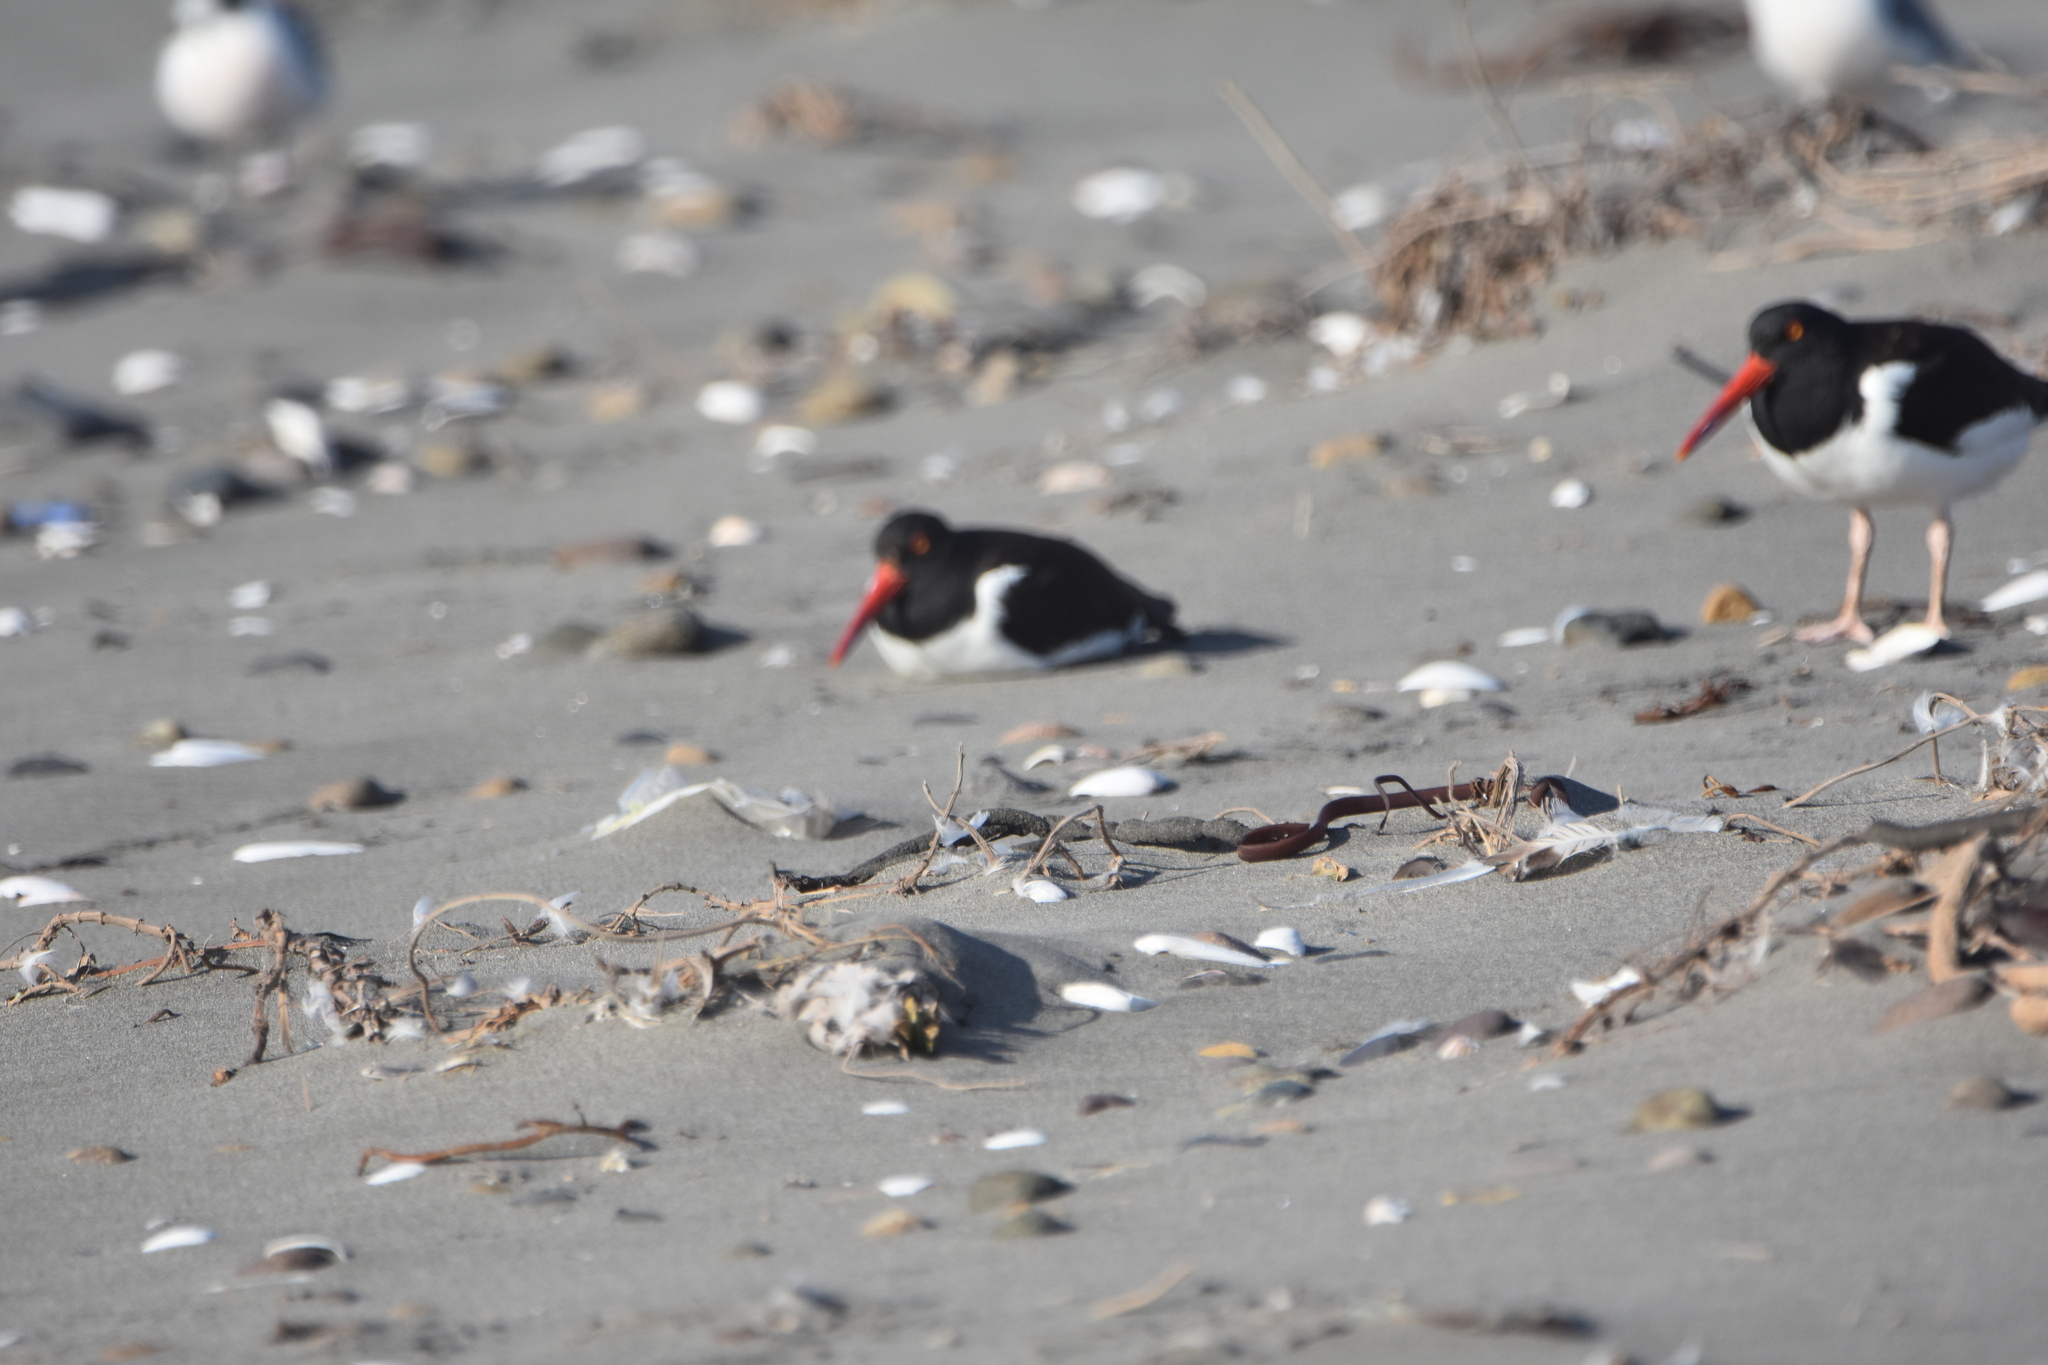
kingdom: Animalia
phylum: Chordata
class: Aves
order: Charadriiformes
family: Haematopodidae
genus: Haematopus
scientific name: Haematopus palliatus
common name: American oystercatcher
